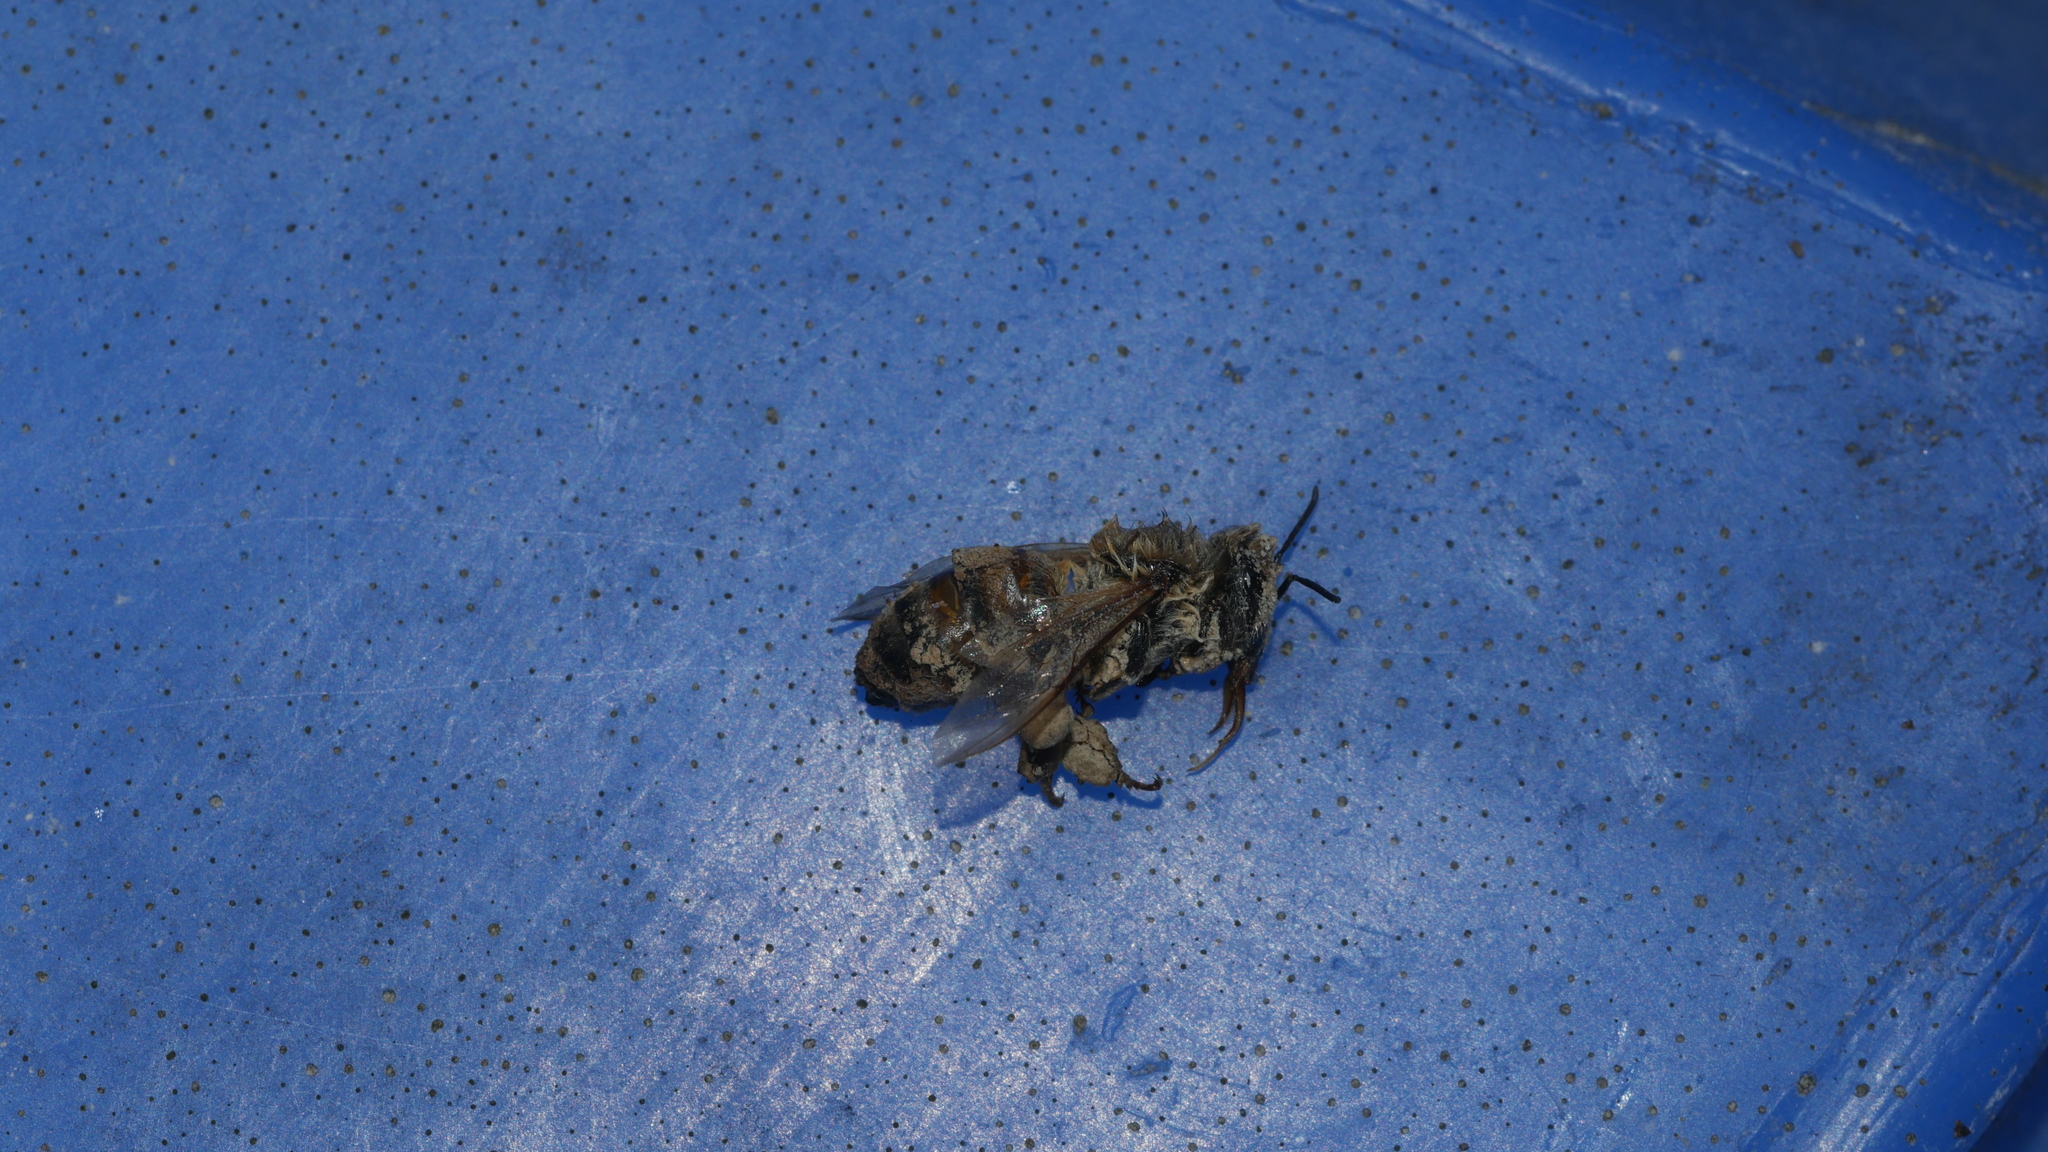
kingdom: Animalia
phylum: Arthropoda
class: Insecta
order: Hymenoptera
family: Apidae
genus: Apis
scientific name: Apis mellifera
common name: Honey bee
